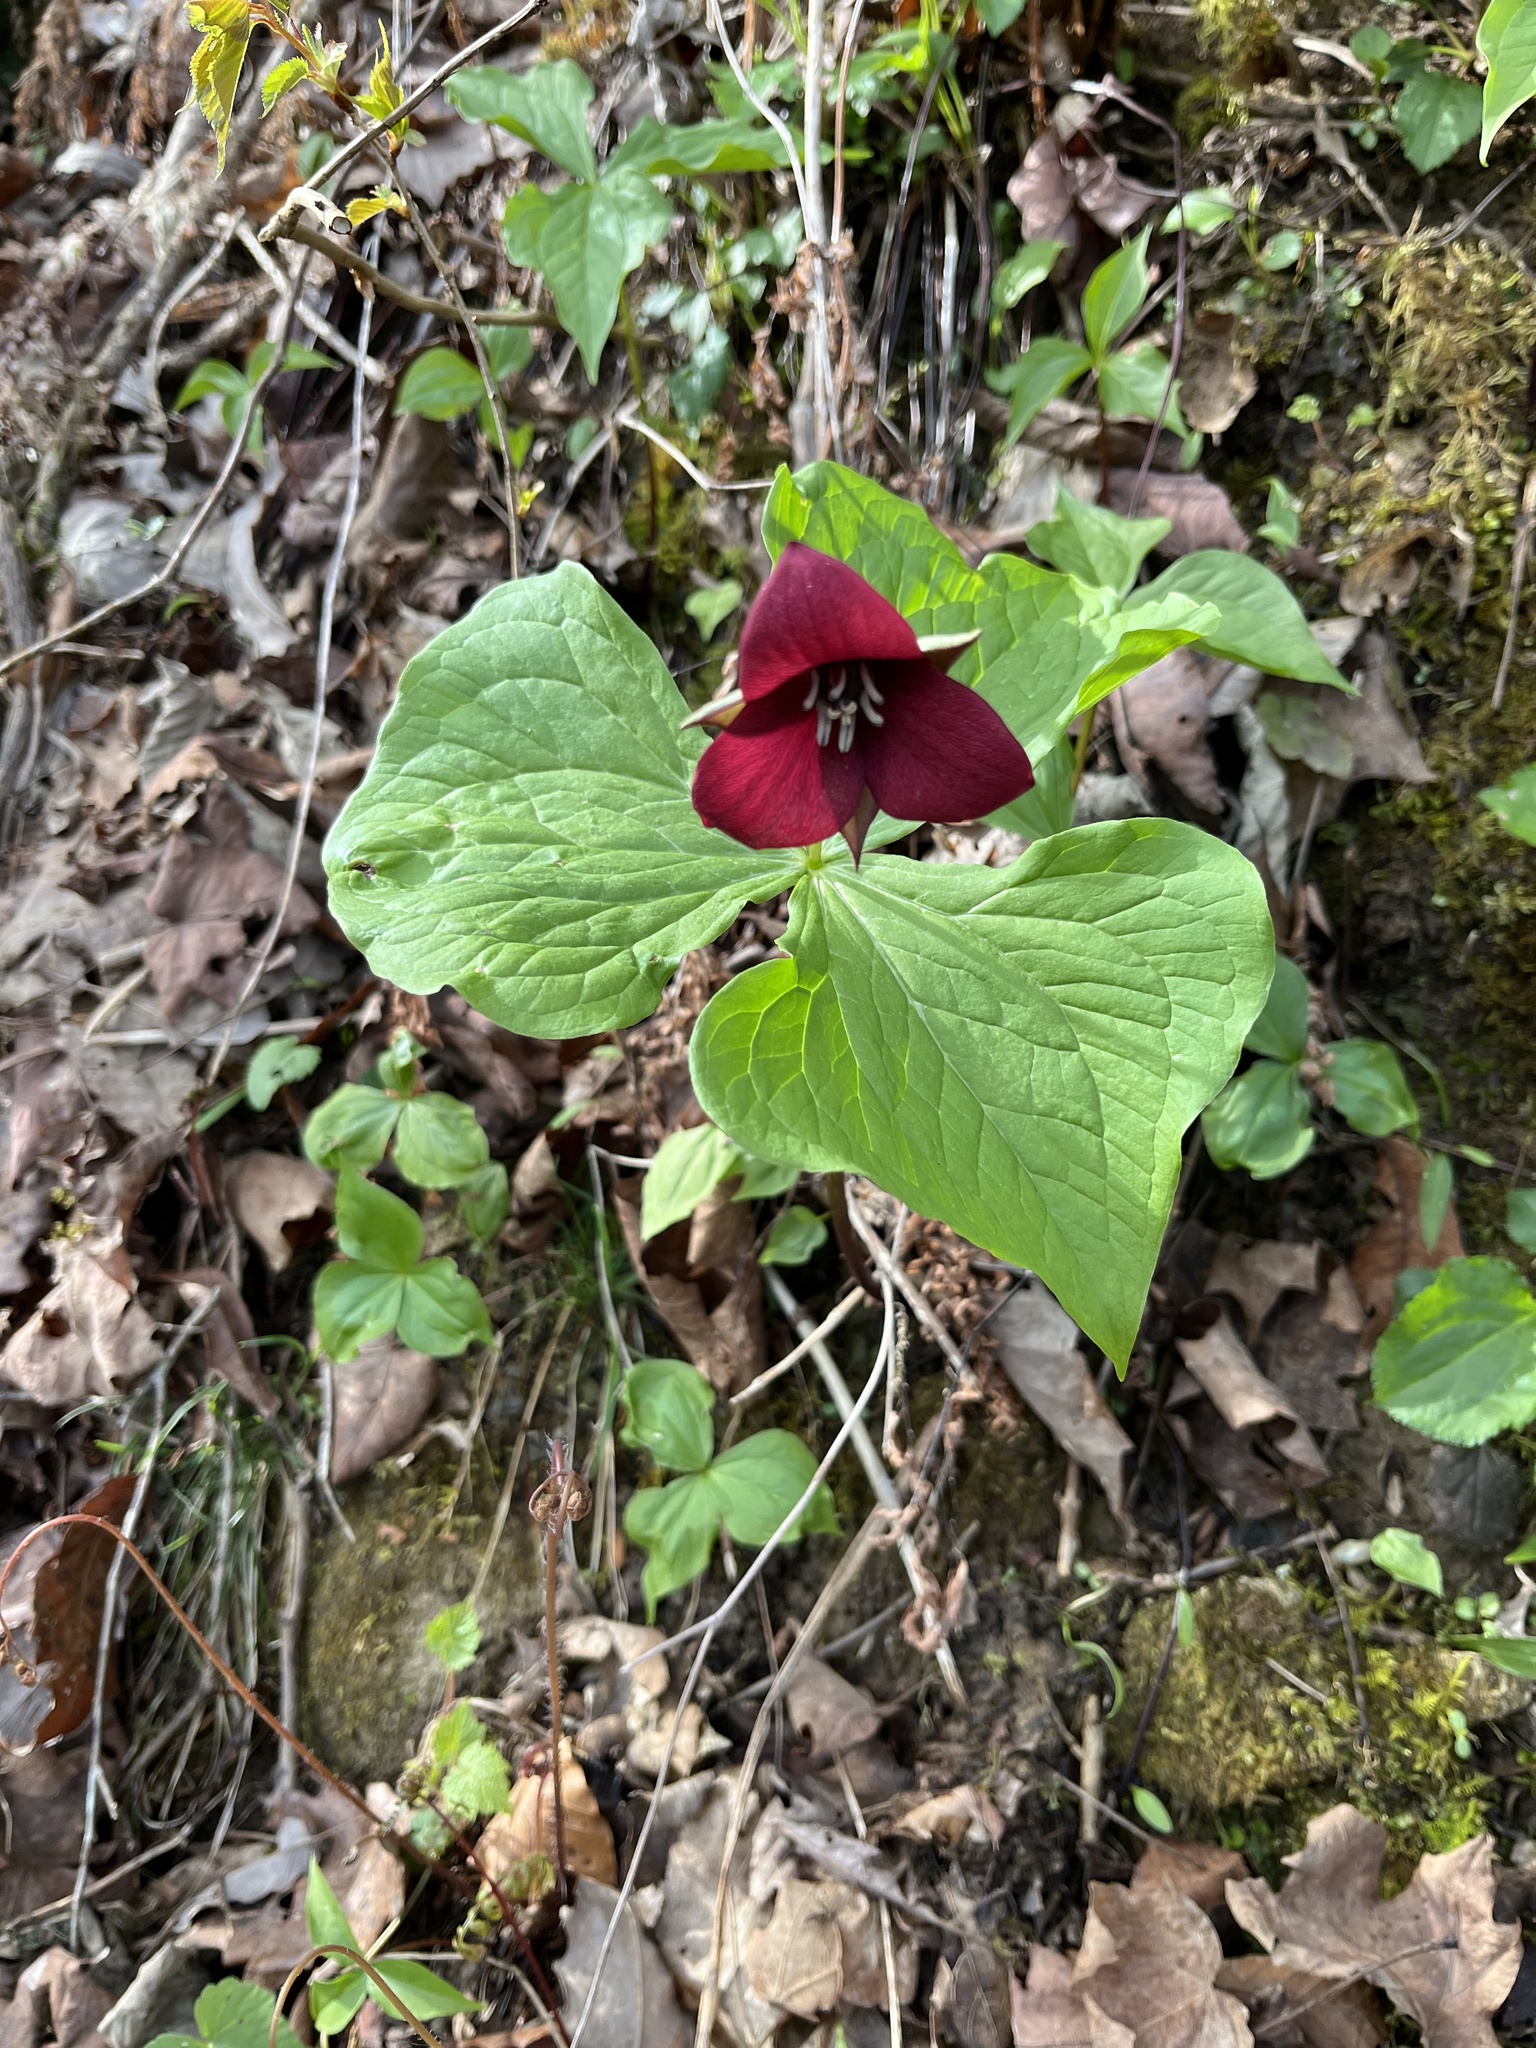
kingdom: Plantae
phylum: Tracheophyta
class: Liliopsida
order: Liliales
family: Melanthiaceae
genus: Trillium
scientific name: Trillium sulcatum
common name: Barksdale trillium
